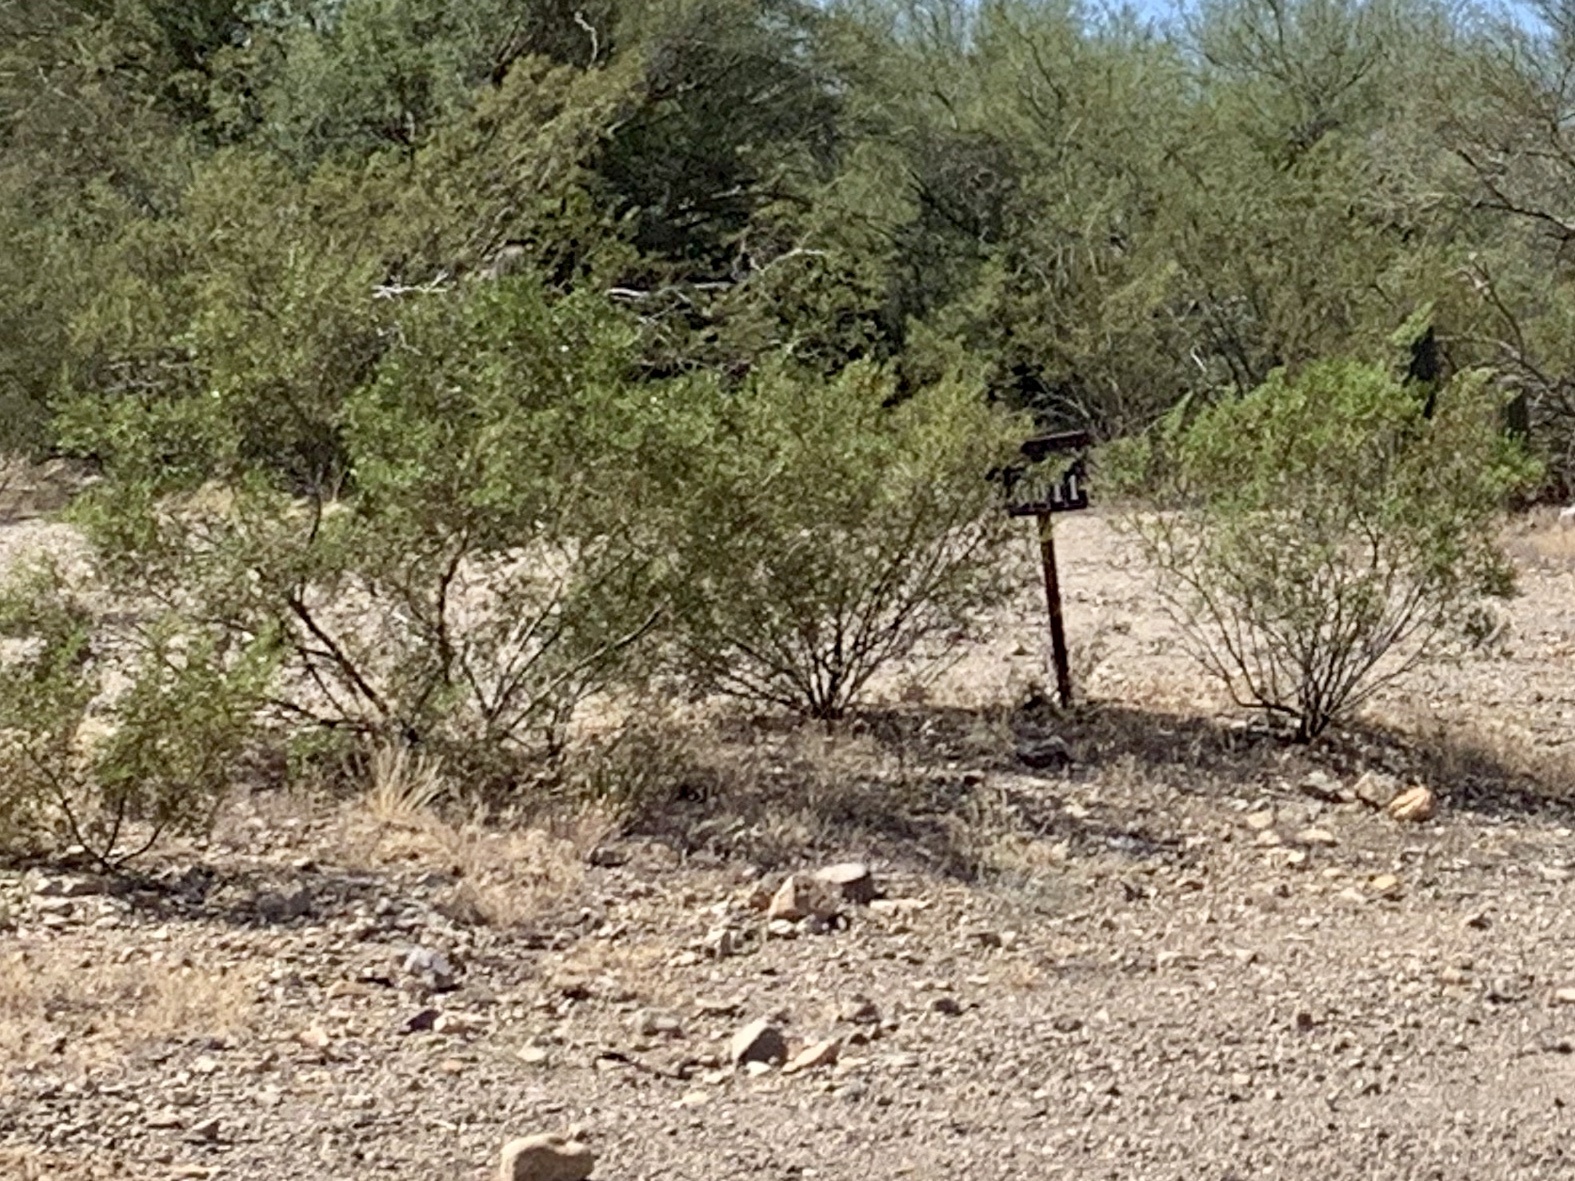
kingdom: Plantae
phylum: Tracheophyta
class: Magnoliopsida
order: Zygophyllales
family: Zygophyllaceae
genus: Larrea
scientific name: Larrea tridentata
